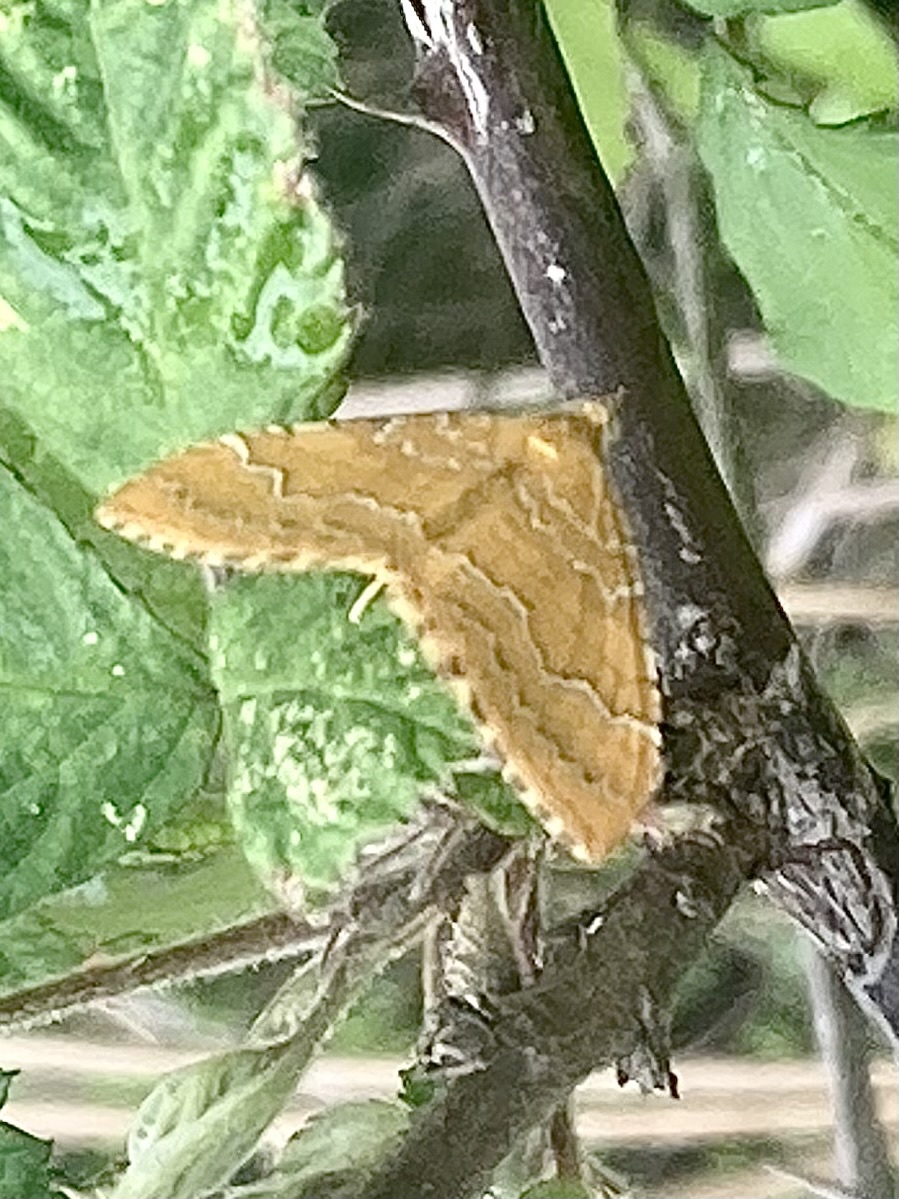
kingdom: Animalia
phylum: Arthropoda
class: Insecta
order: Lepidoptera
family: Geometridae
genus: Camptogramma
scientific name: Camptogramma bilineata
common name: Yellow shell
